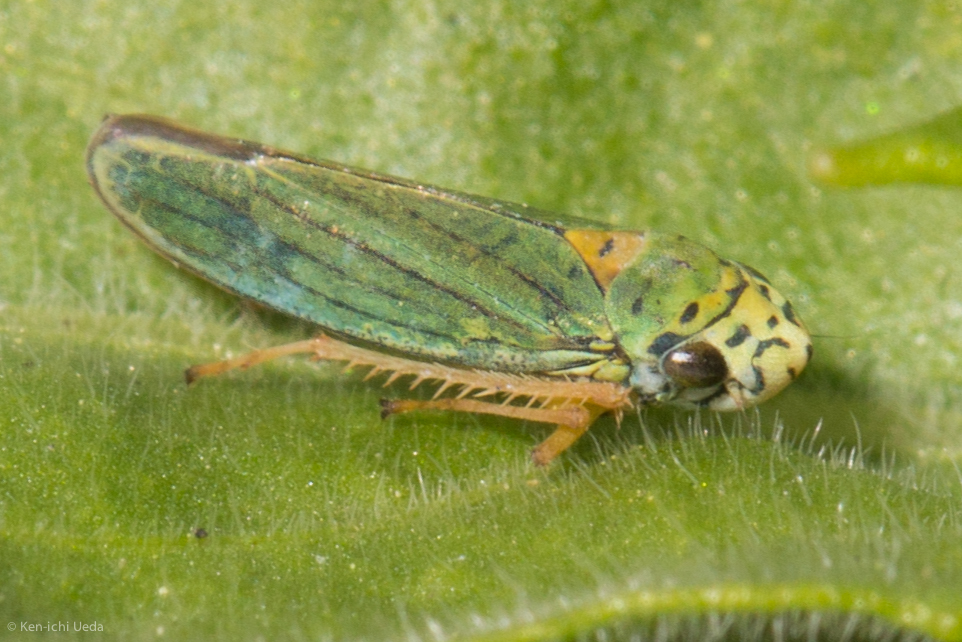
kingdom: Animalia
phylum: Arthropoda
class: Insecta
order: Hemiptera
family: Cicadellidae
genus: Graphocephala
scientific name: Graphocephala atropunctata
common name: Blue-green sharpshooter
